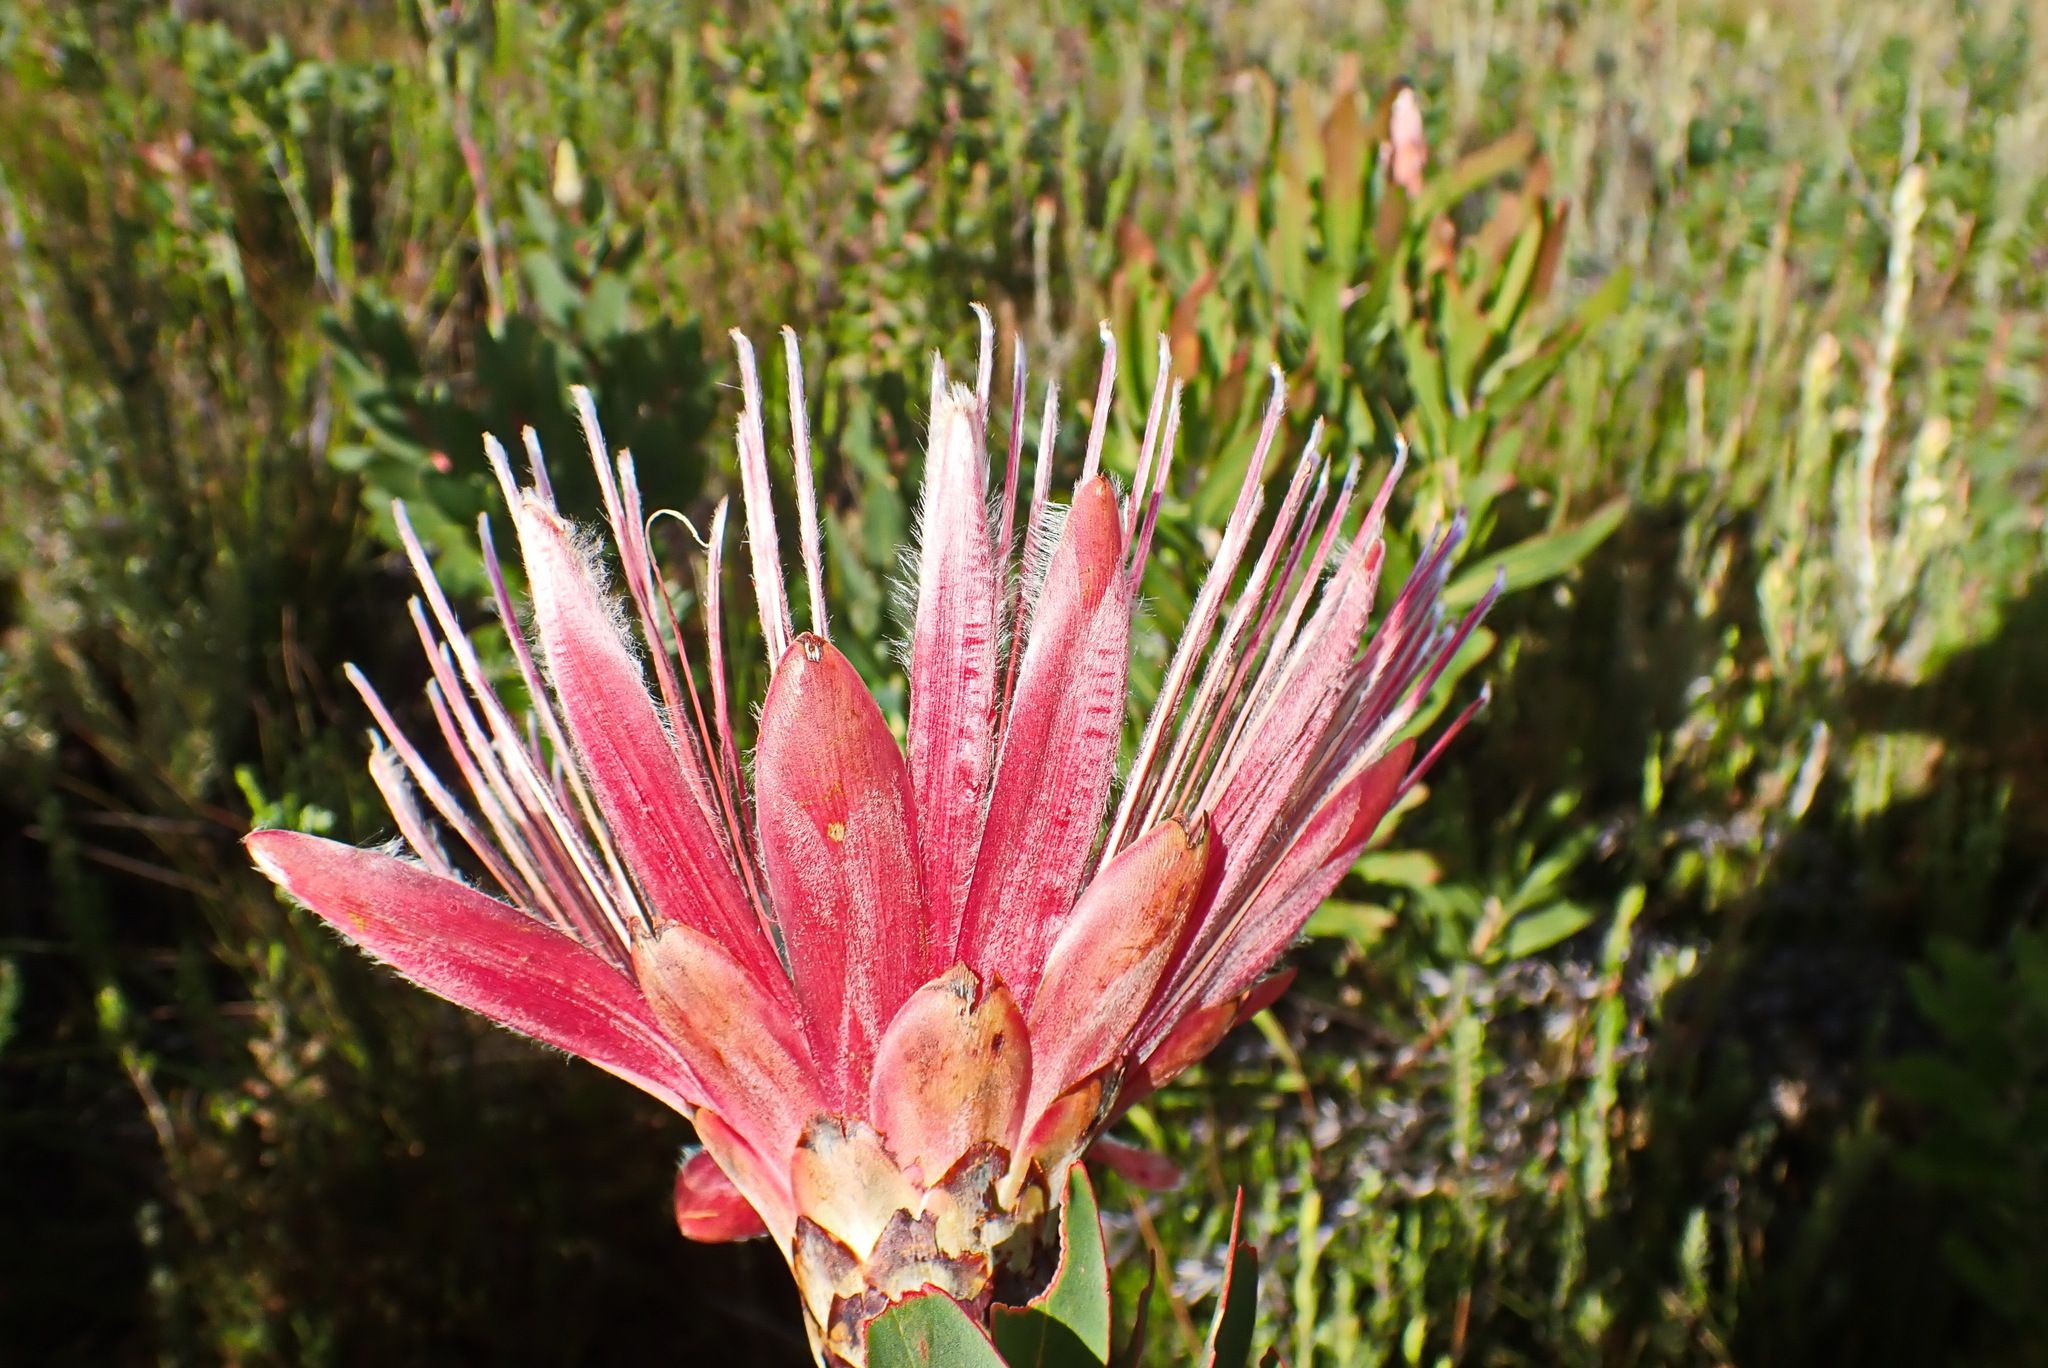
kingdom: Plantae
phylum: Tracheophyta
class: Magnoliopsida
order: Proteales
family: Proteaceae
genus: Protea
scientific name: Protea aurea
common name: Shuttlecock sugarbush
